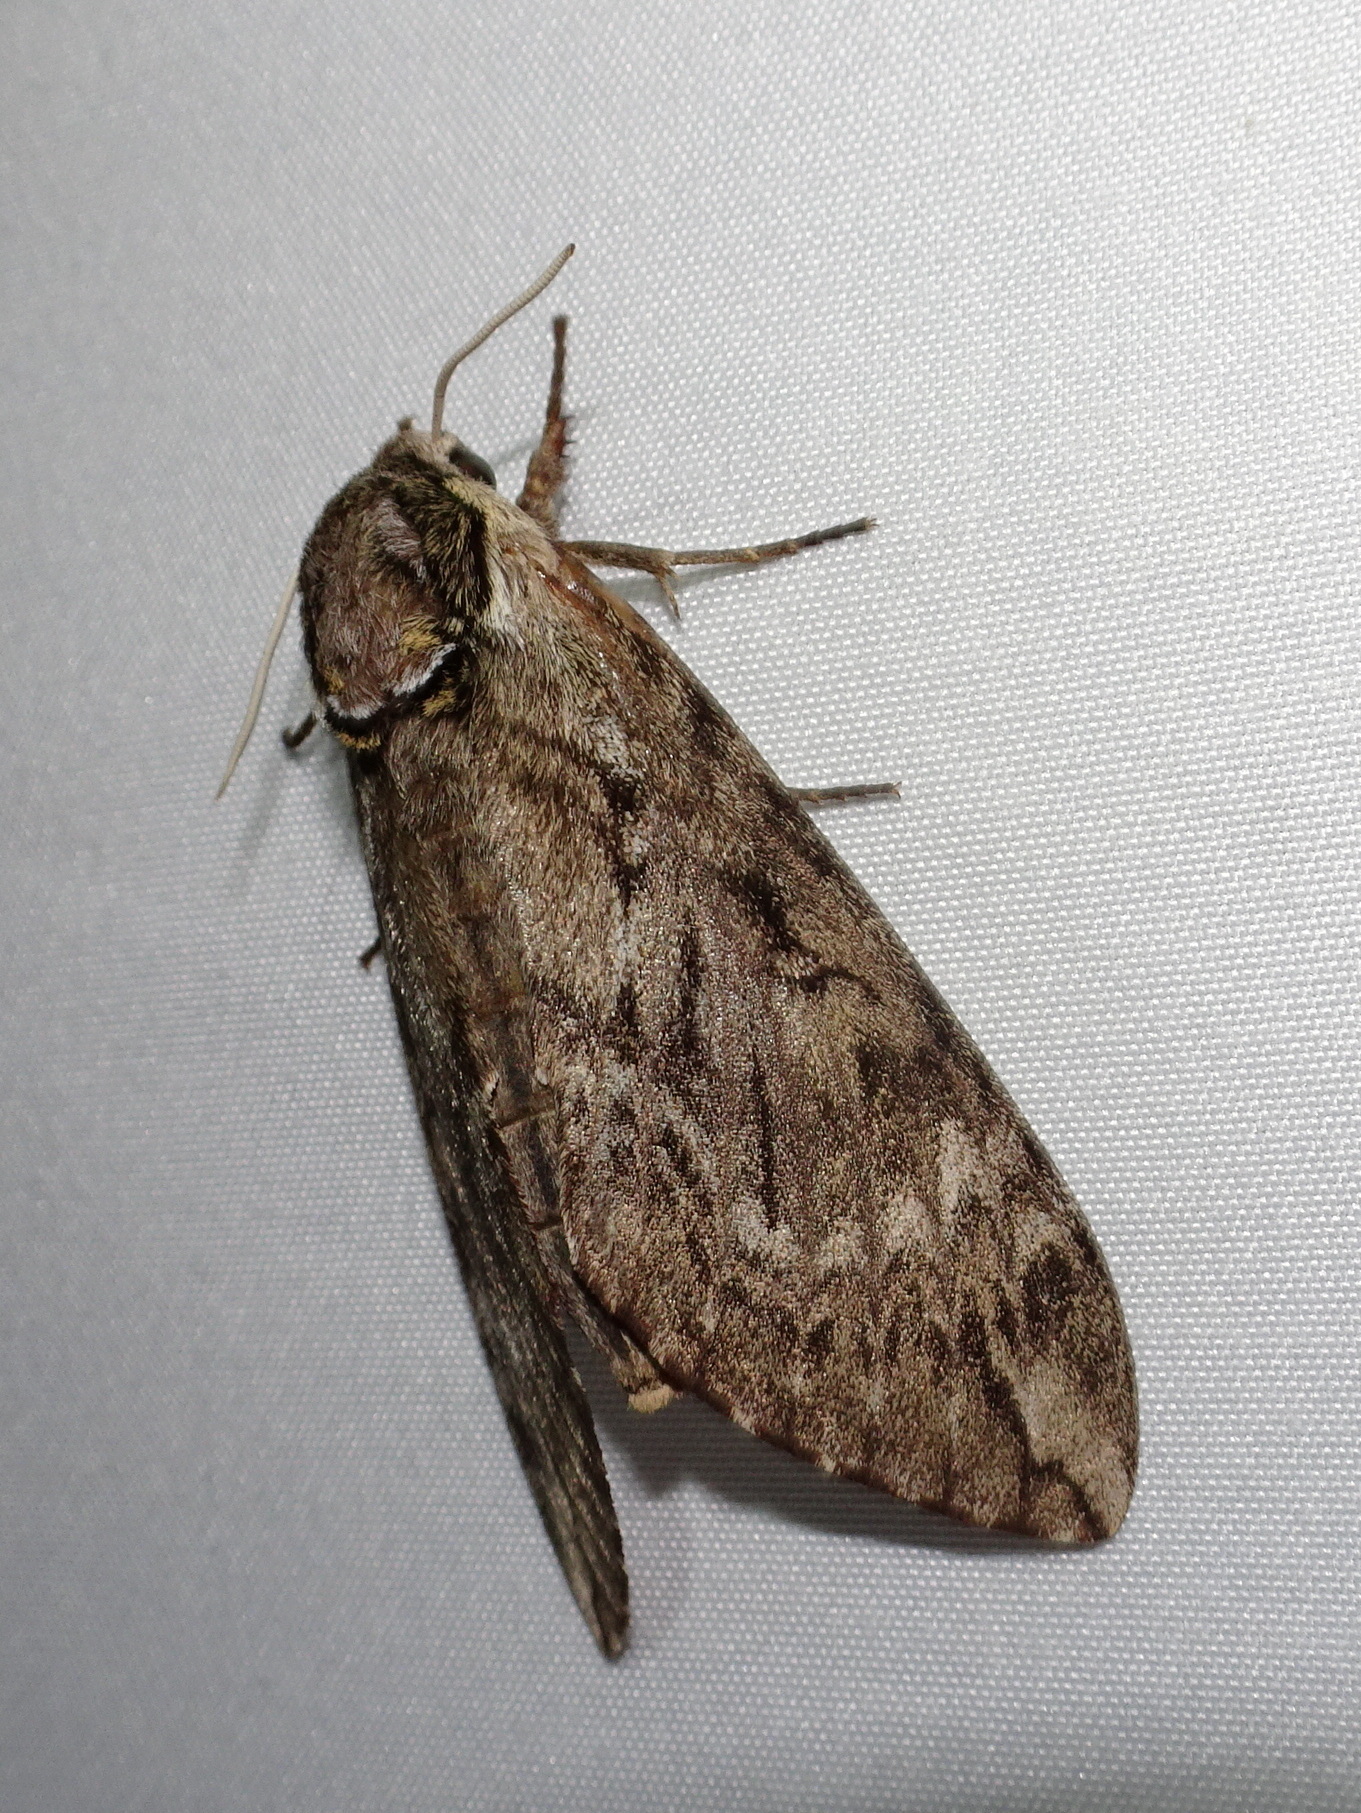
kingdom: Animalia
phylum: Arthropoda
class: Insecta
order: Lepidoptera
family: Sphingidae
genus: Ceratomia
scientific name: Ceratomia undulosa
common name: Waved sphinx
